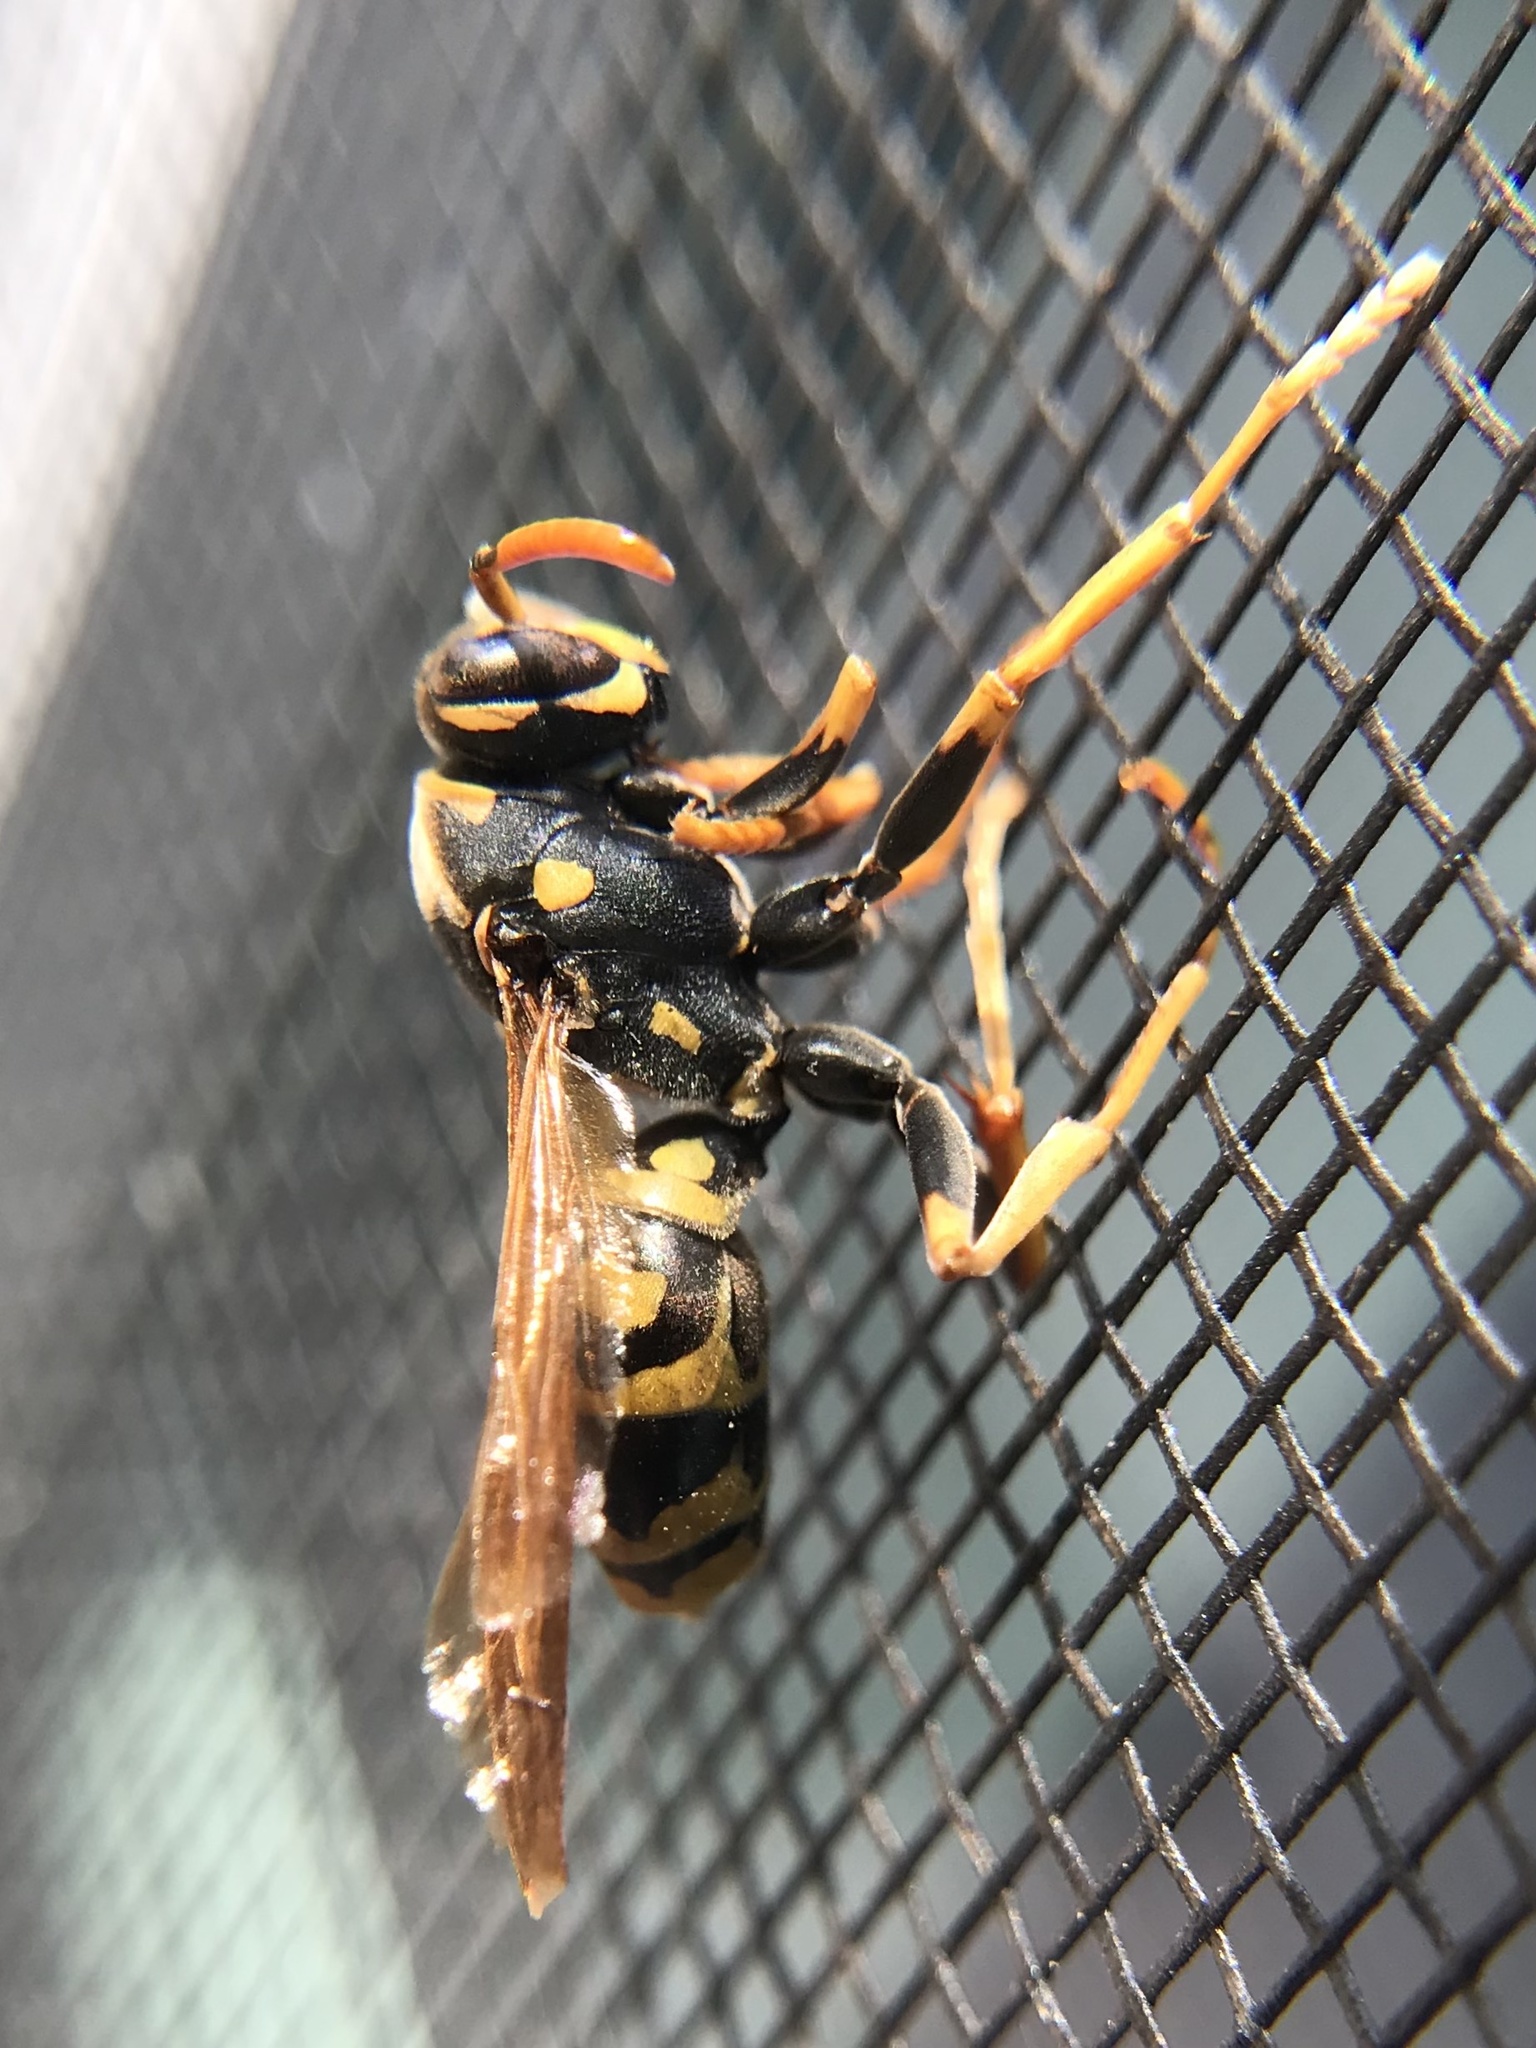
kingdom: Animalia
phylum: Arthropoda
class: Insecta
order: Hymenoptera
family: Eumenidae
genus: Polistes
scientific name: Polistes dominula
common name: Paper wasp
